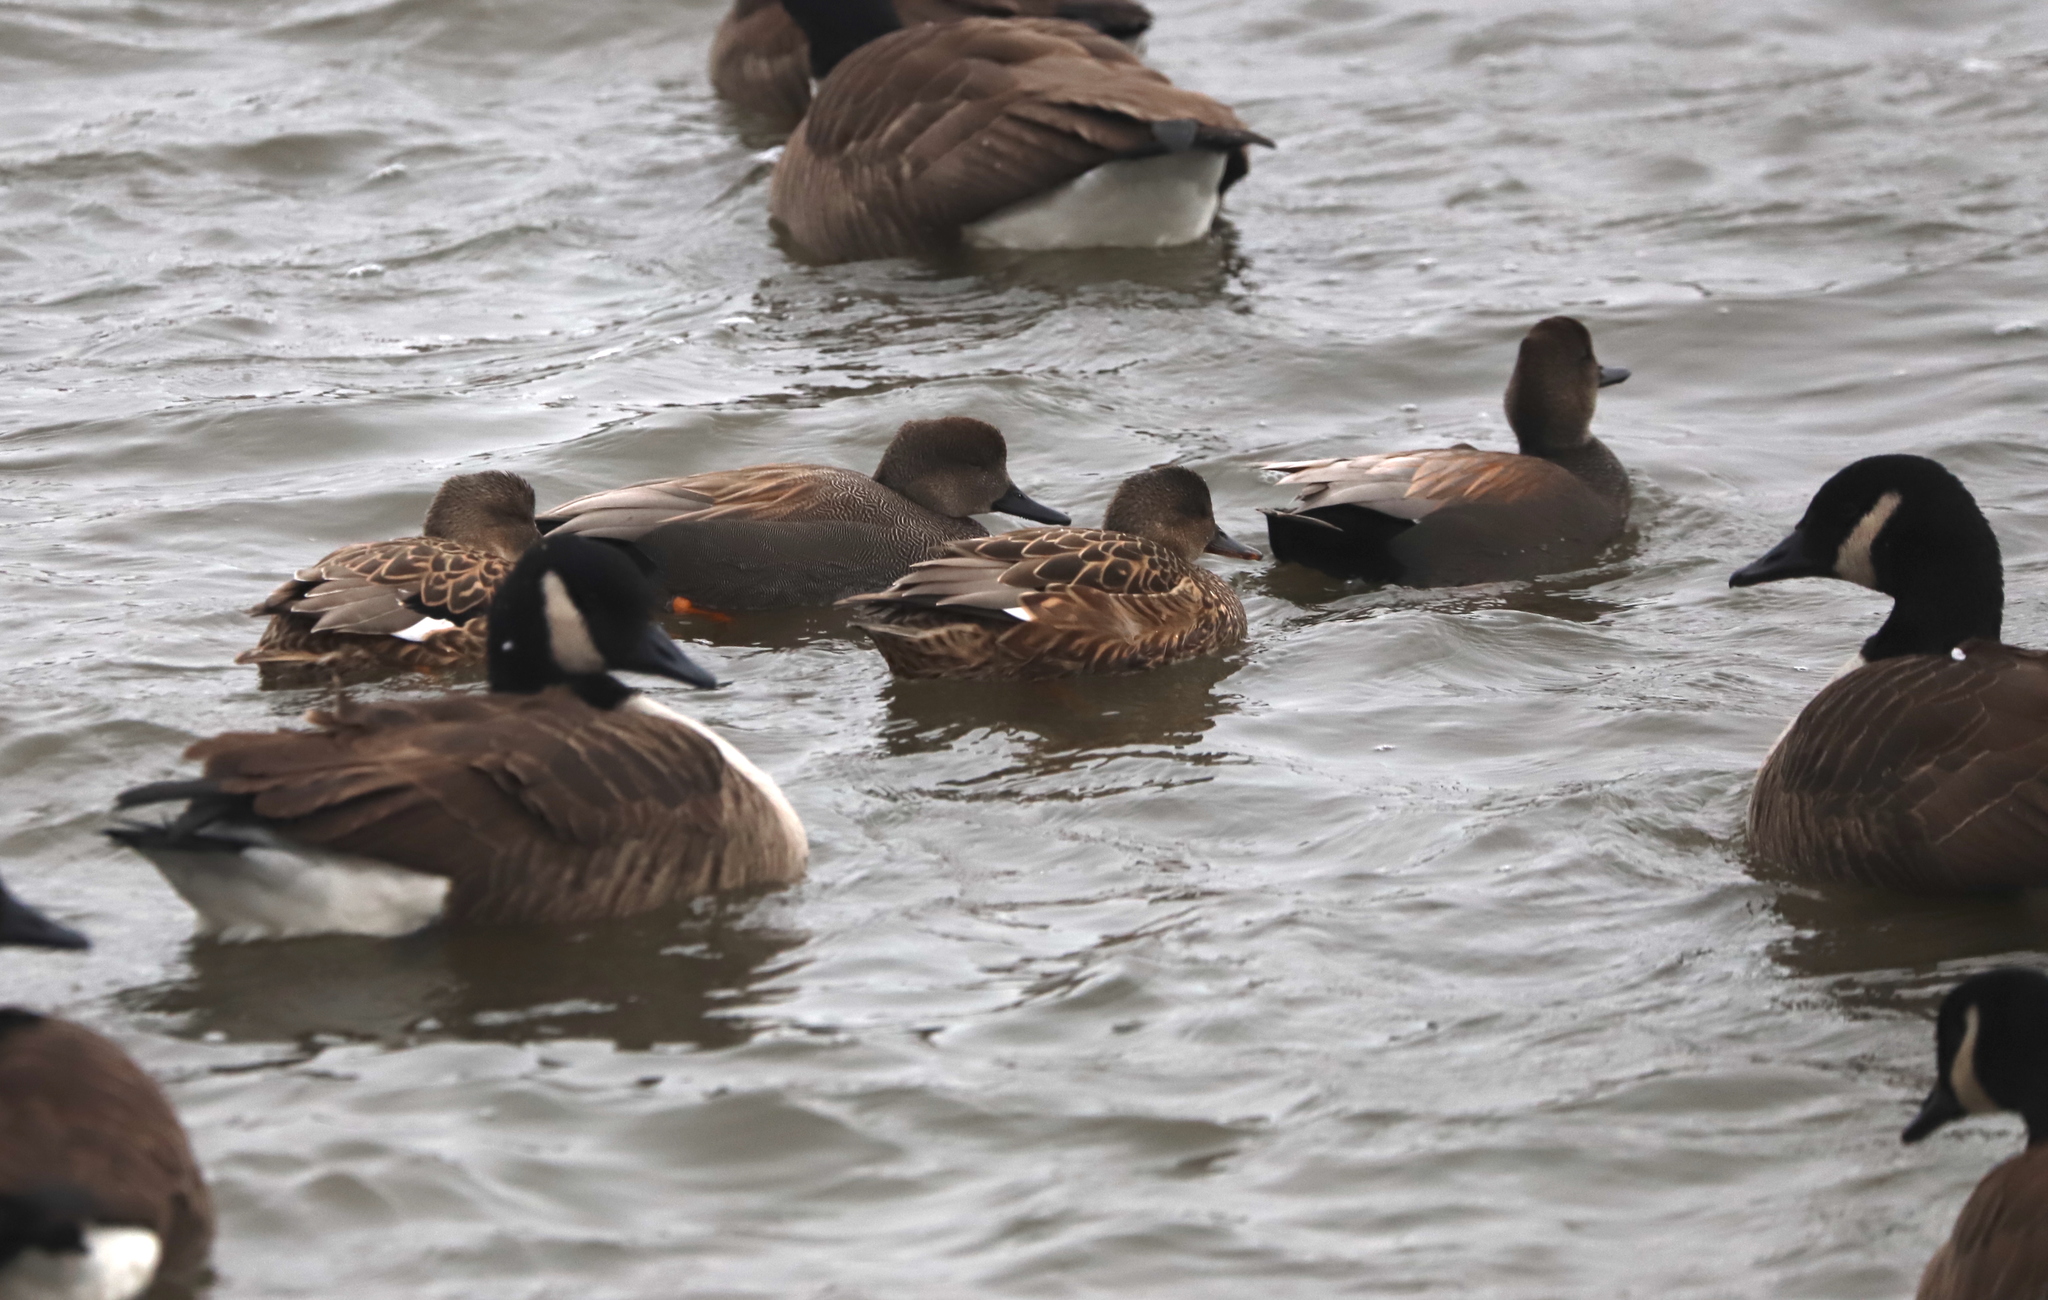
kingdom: Animalia
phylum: Chordata
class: Aves
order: Anseriformes
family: Anatidae
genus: Mareca
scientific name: Mareca strepera
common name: Gadwall
